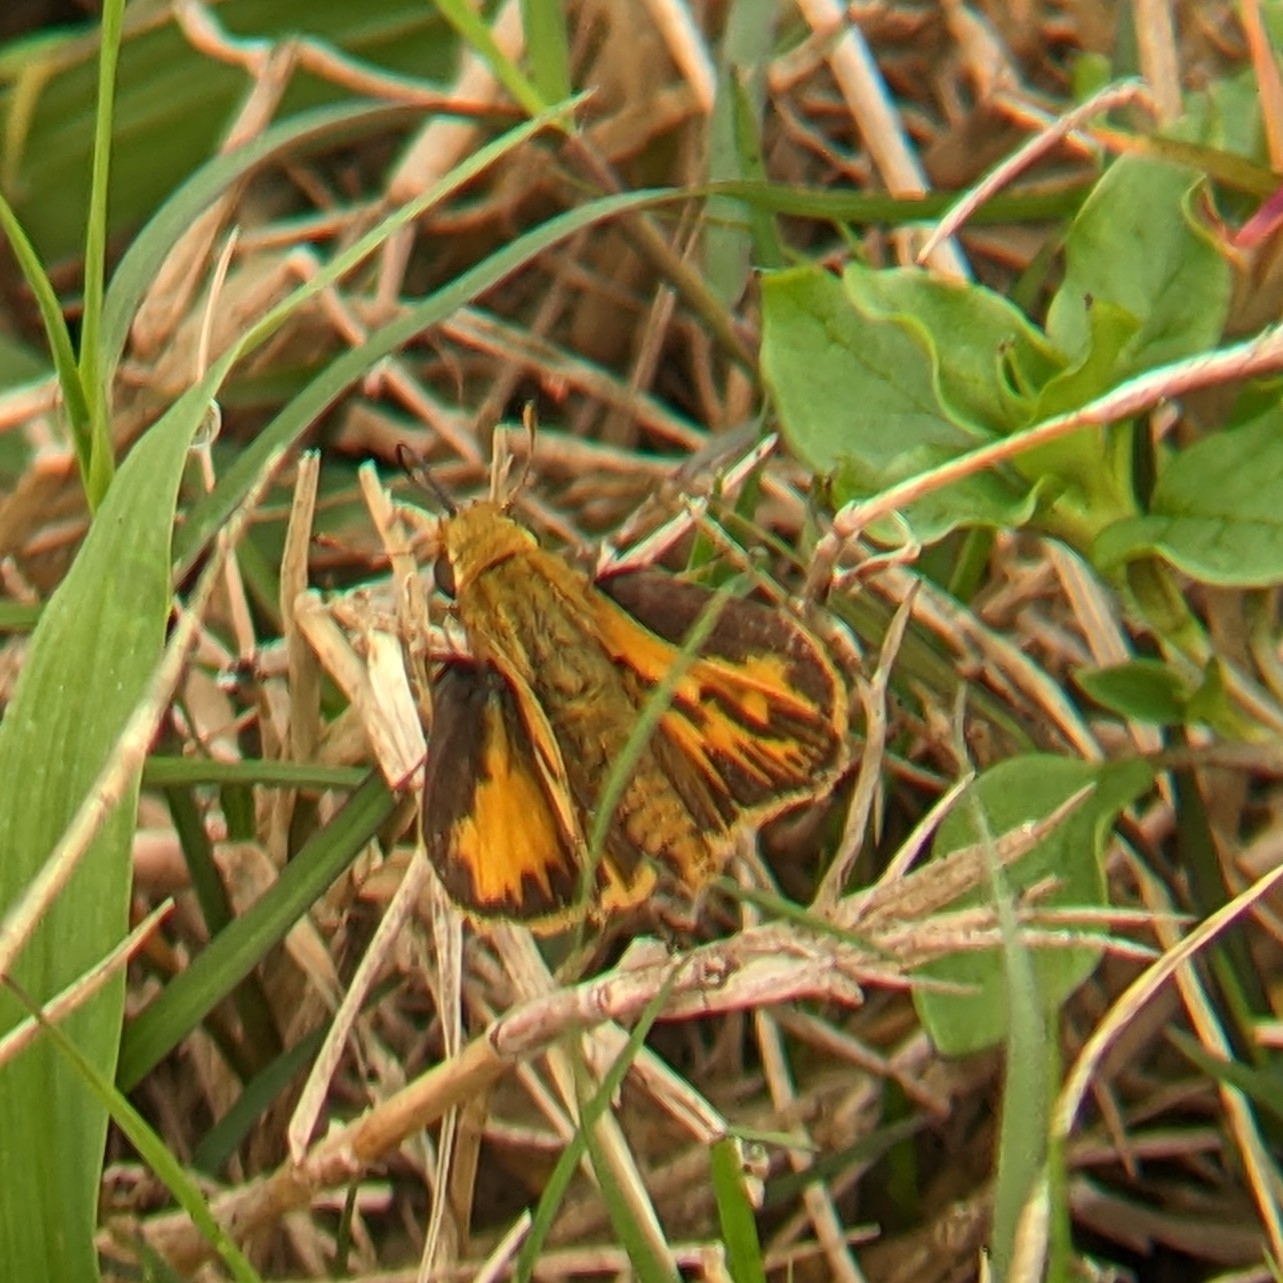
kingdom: Animalia
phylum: Arthropoda
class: Insecta
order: Lepidoptera
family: Hesperiidae
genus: Hylephila
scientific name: Hylephila phyleus
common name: Fiery skipper
